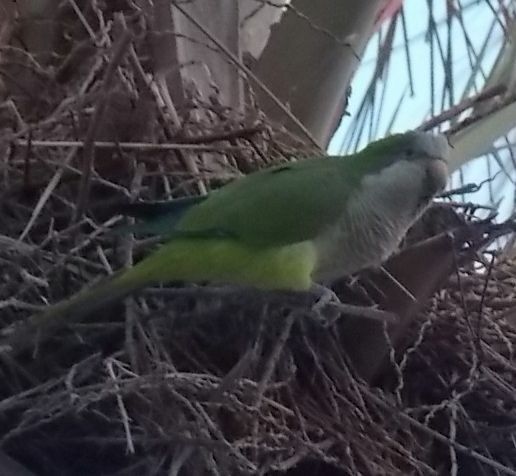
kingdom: Animalia
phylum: Chordata
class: Aves
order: Psittaciformes
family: Psittacidae
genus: Myiopsitta
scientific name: Myiopsitta monachus
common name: Monk parakeet
